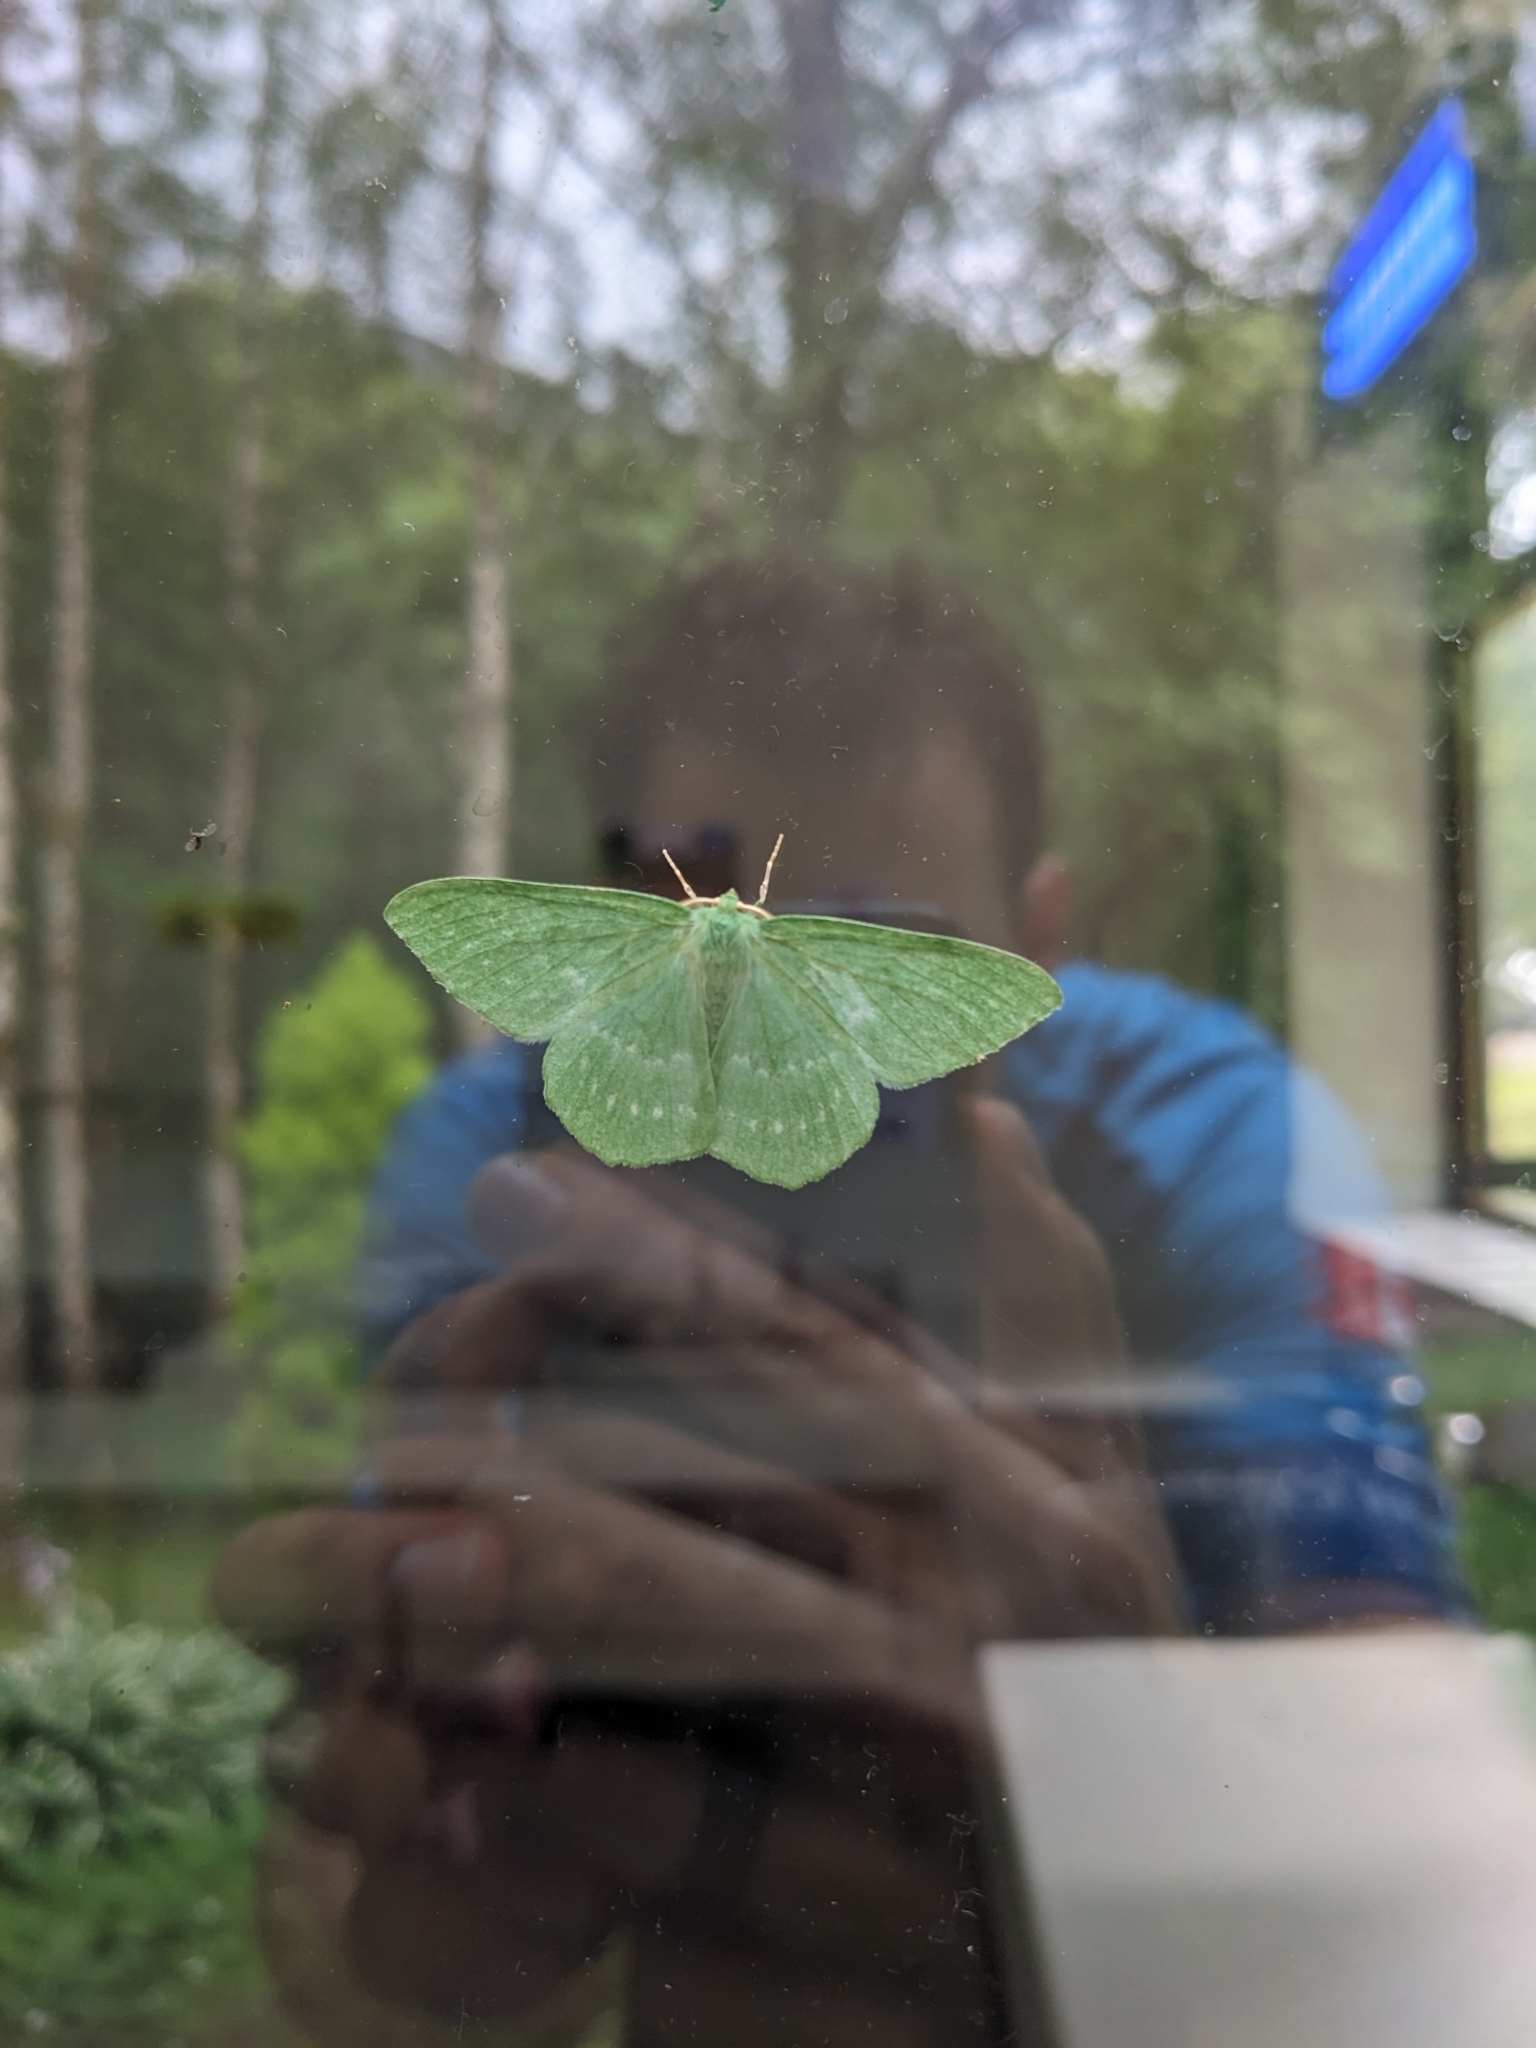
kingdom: Animalia
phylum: Arthropoda
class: Insecta
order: Lepidoptera
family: Geometridae
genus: Geometra
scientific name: Geometra papilionaria
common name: Large emerald
